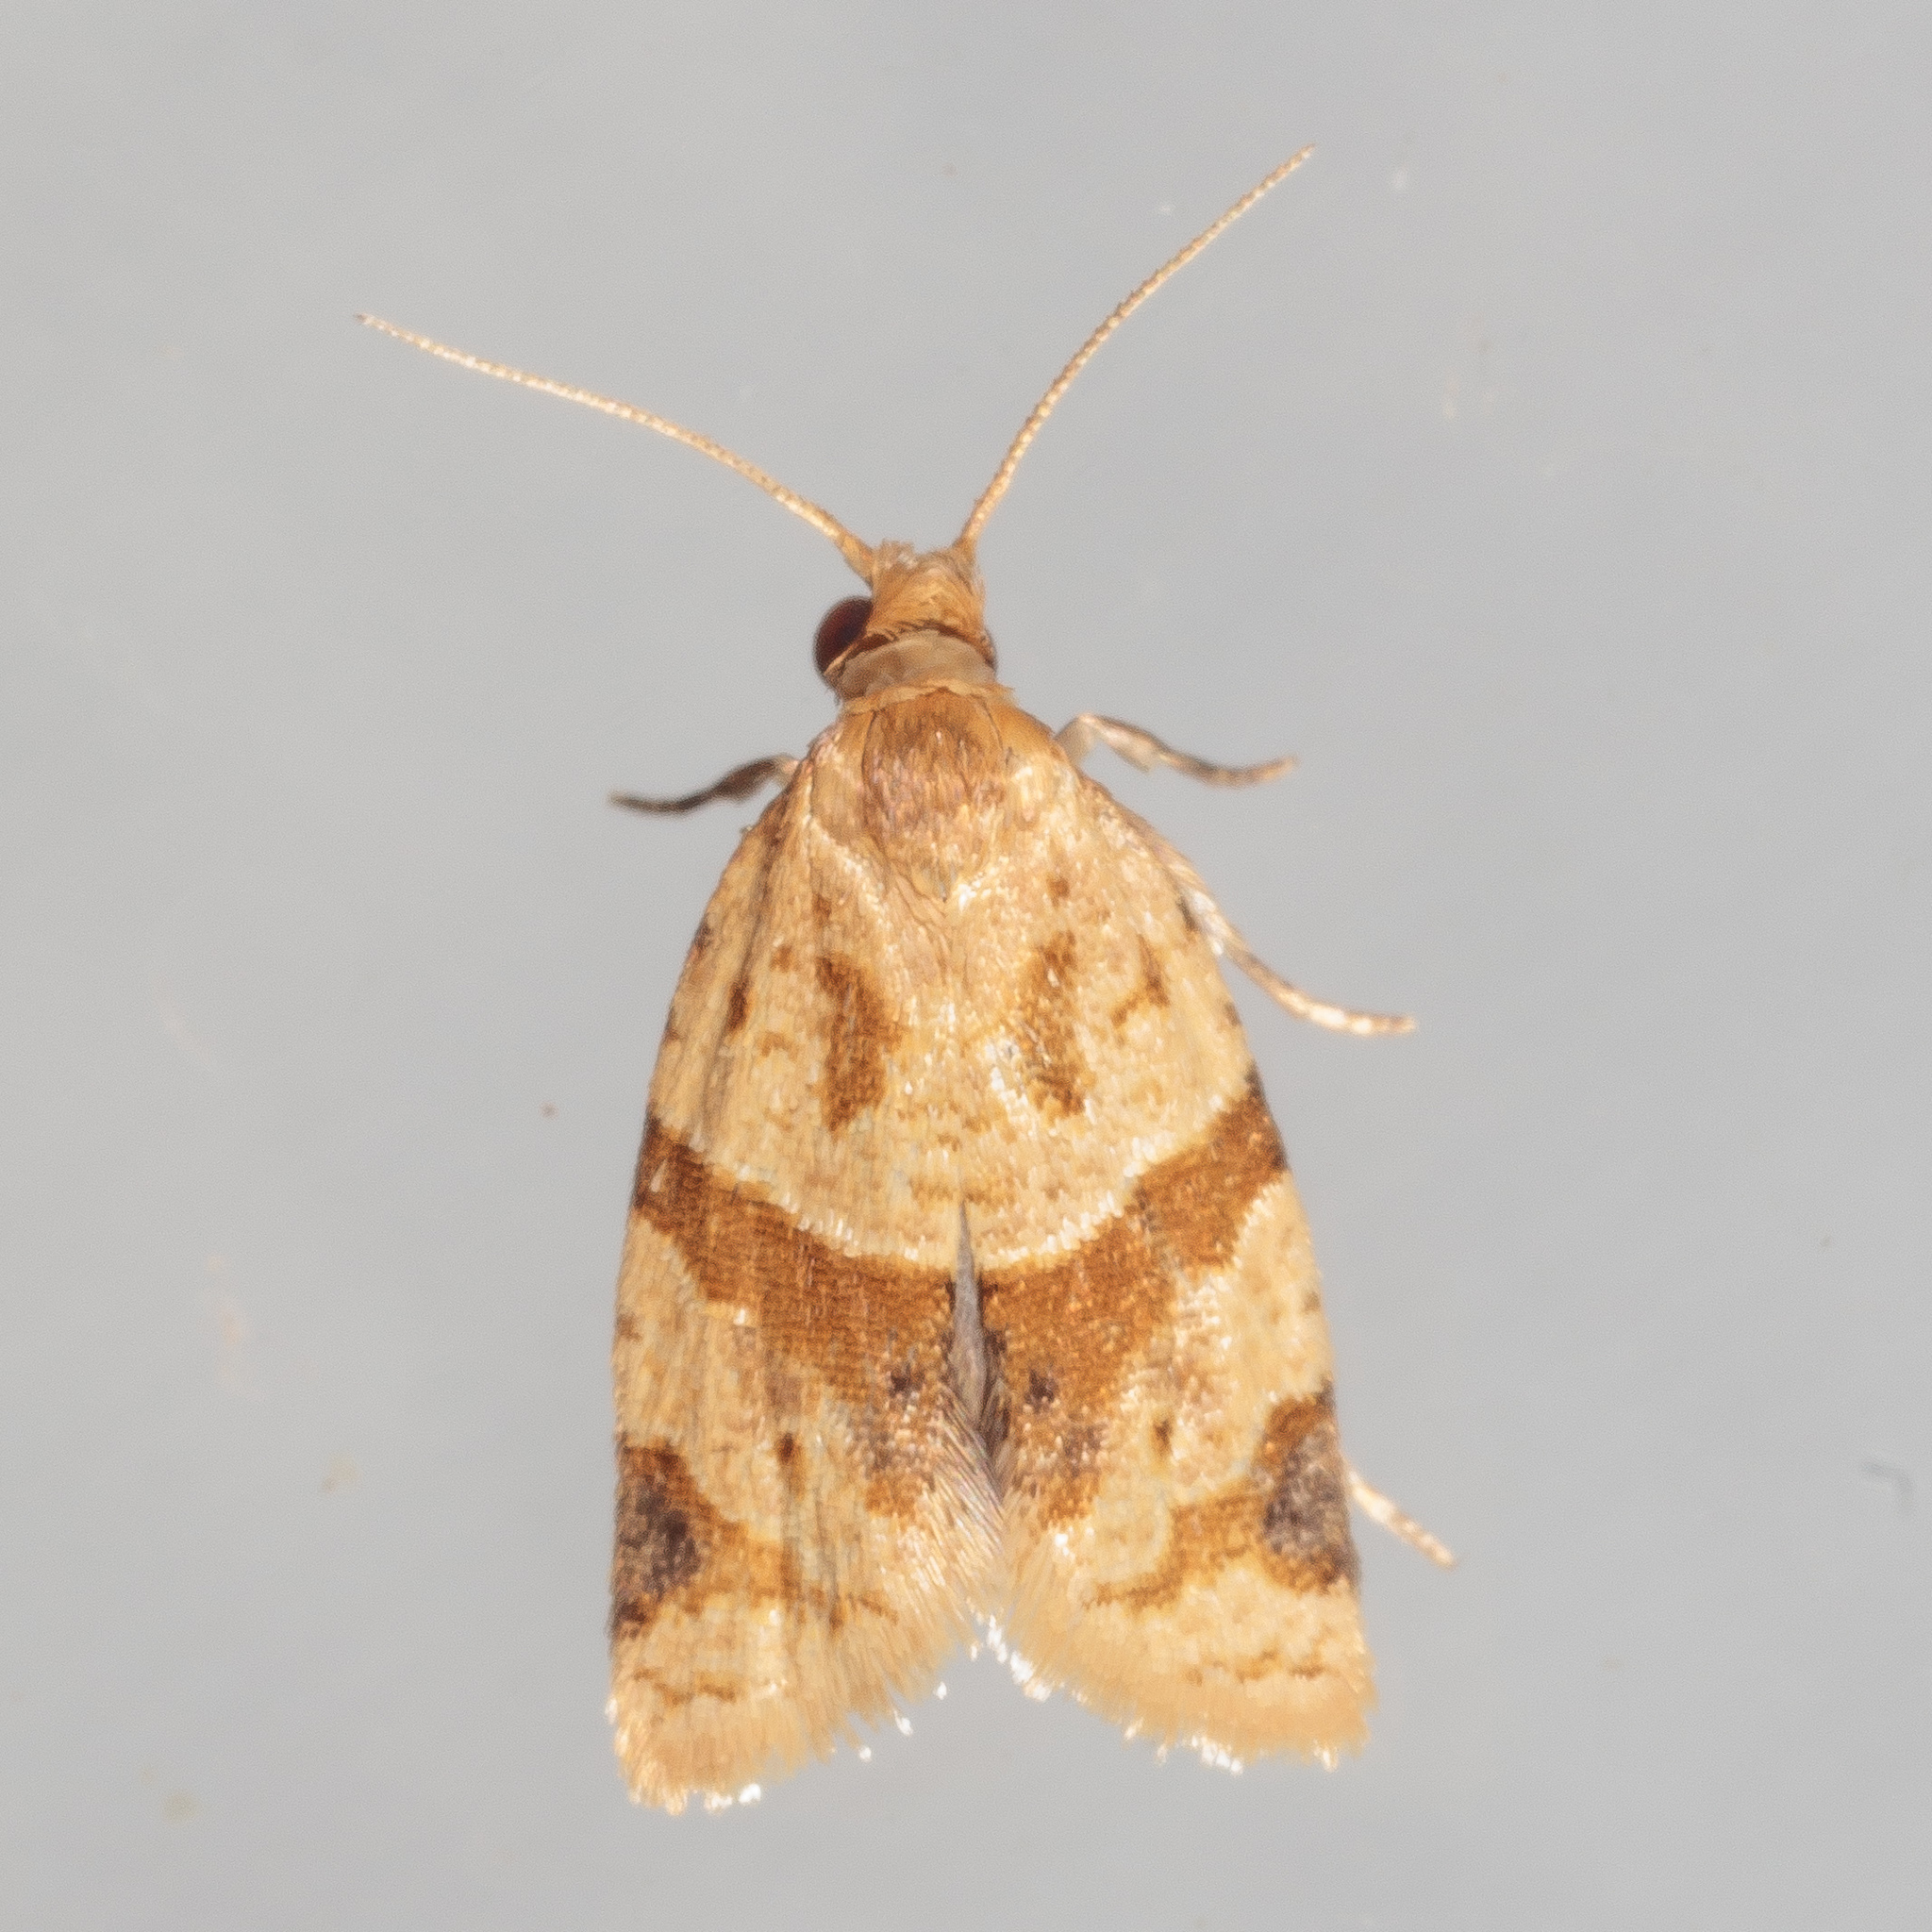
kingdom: Animalia
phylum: Arthropoda
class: Insecta
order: Lepidoptera
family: Tortricidae
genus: Clepsis
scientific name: Clepsis peritana
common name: Garden tortrix
